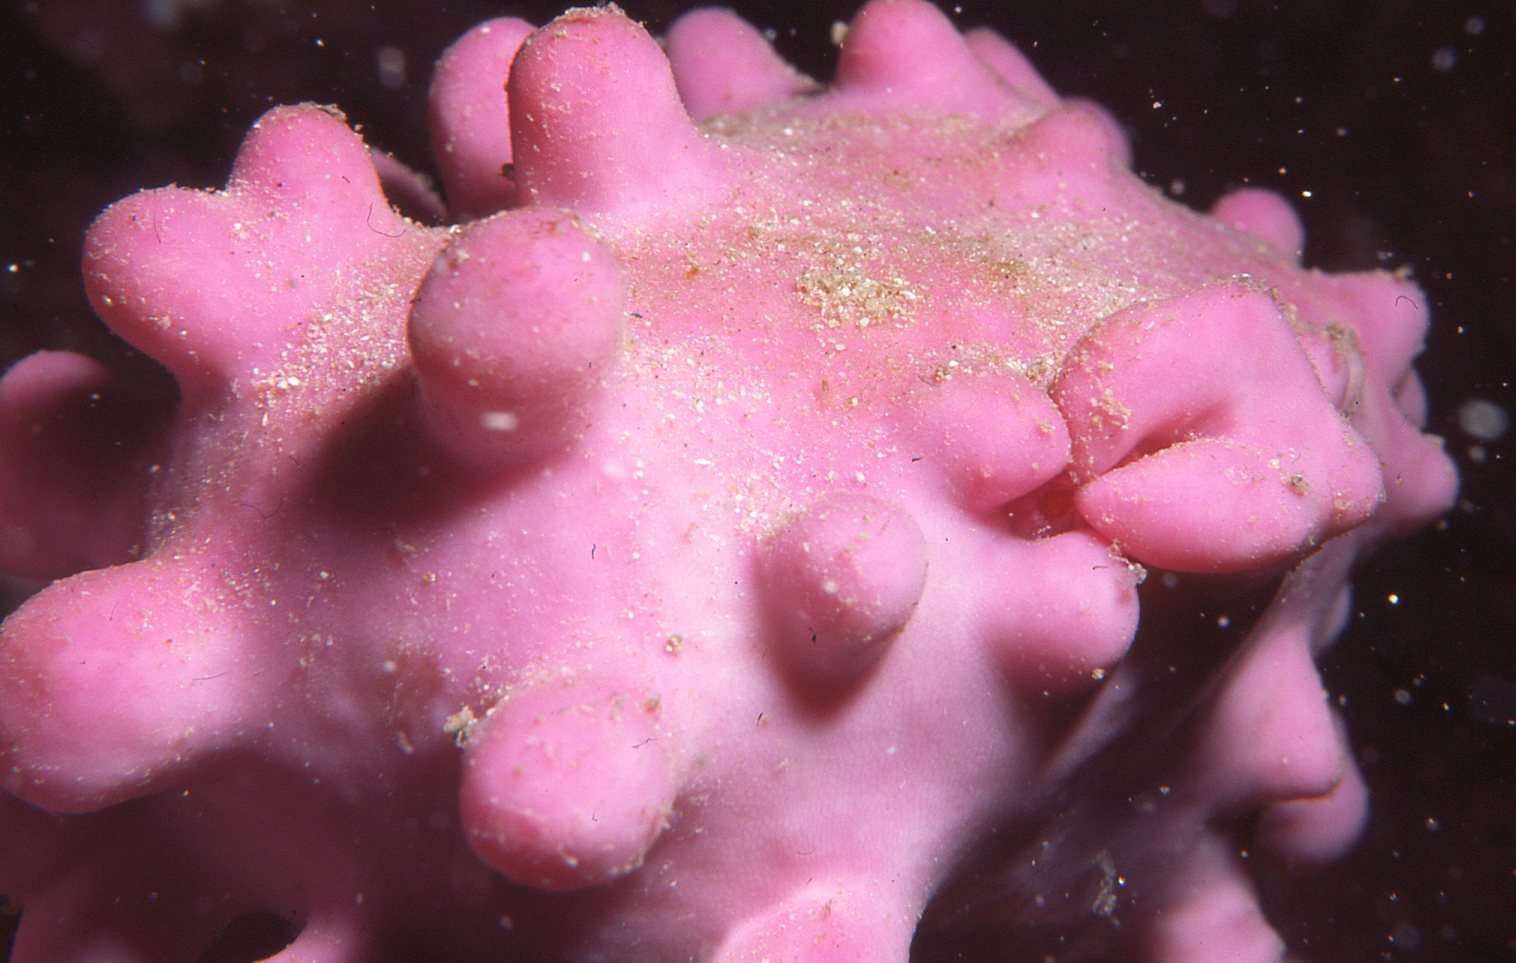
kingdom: Animalia
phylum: Chordata
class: Ascidiacea
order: Stolidobranchia
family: Pyuridae
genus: Pyura
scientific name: Pyura spinifera
